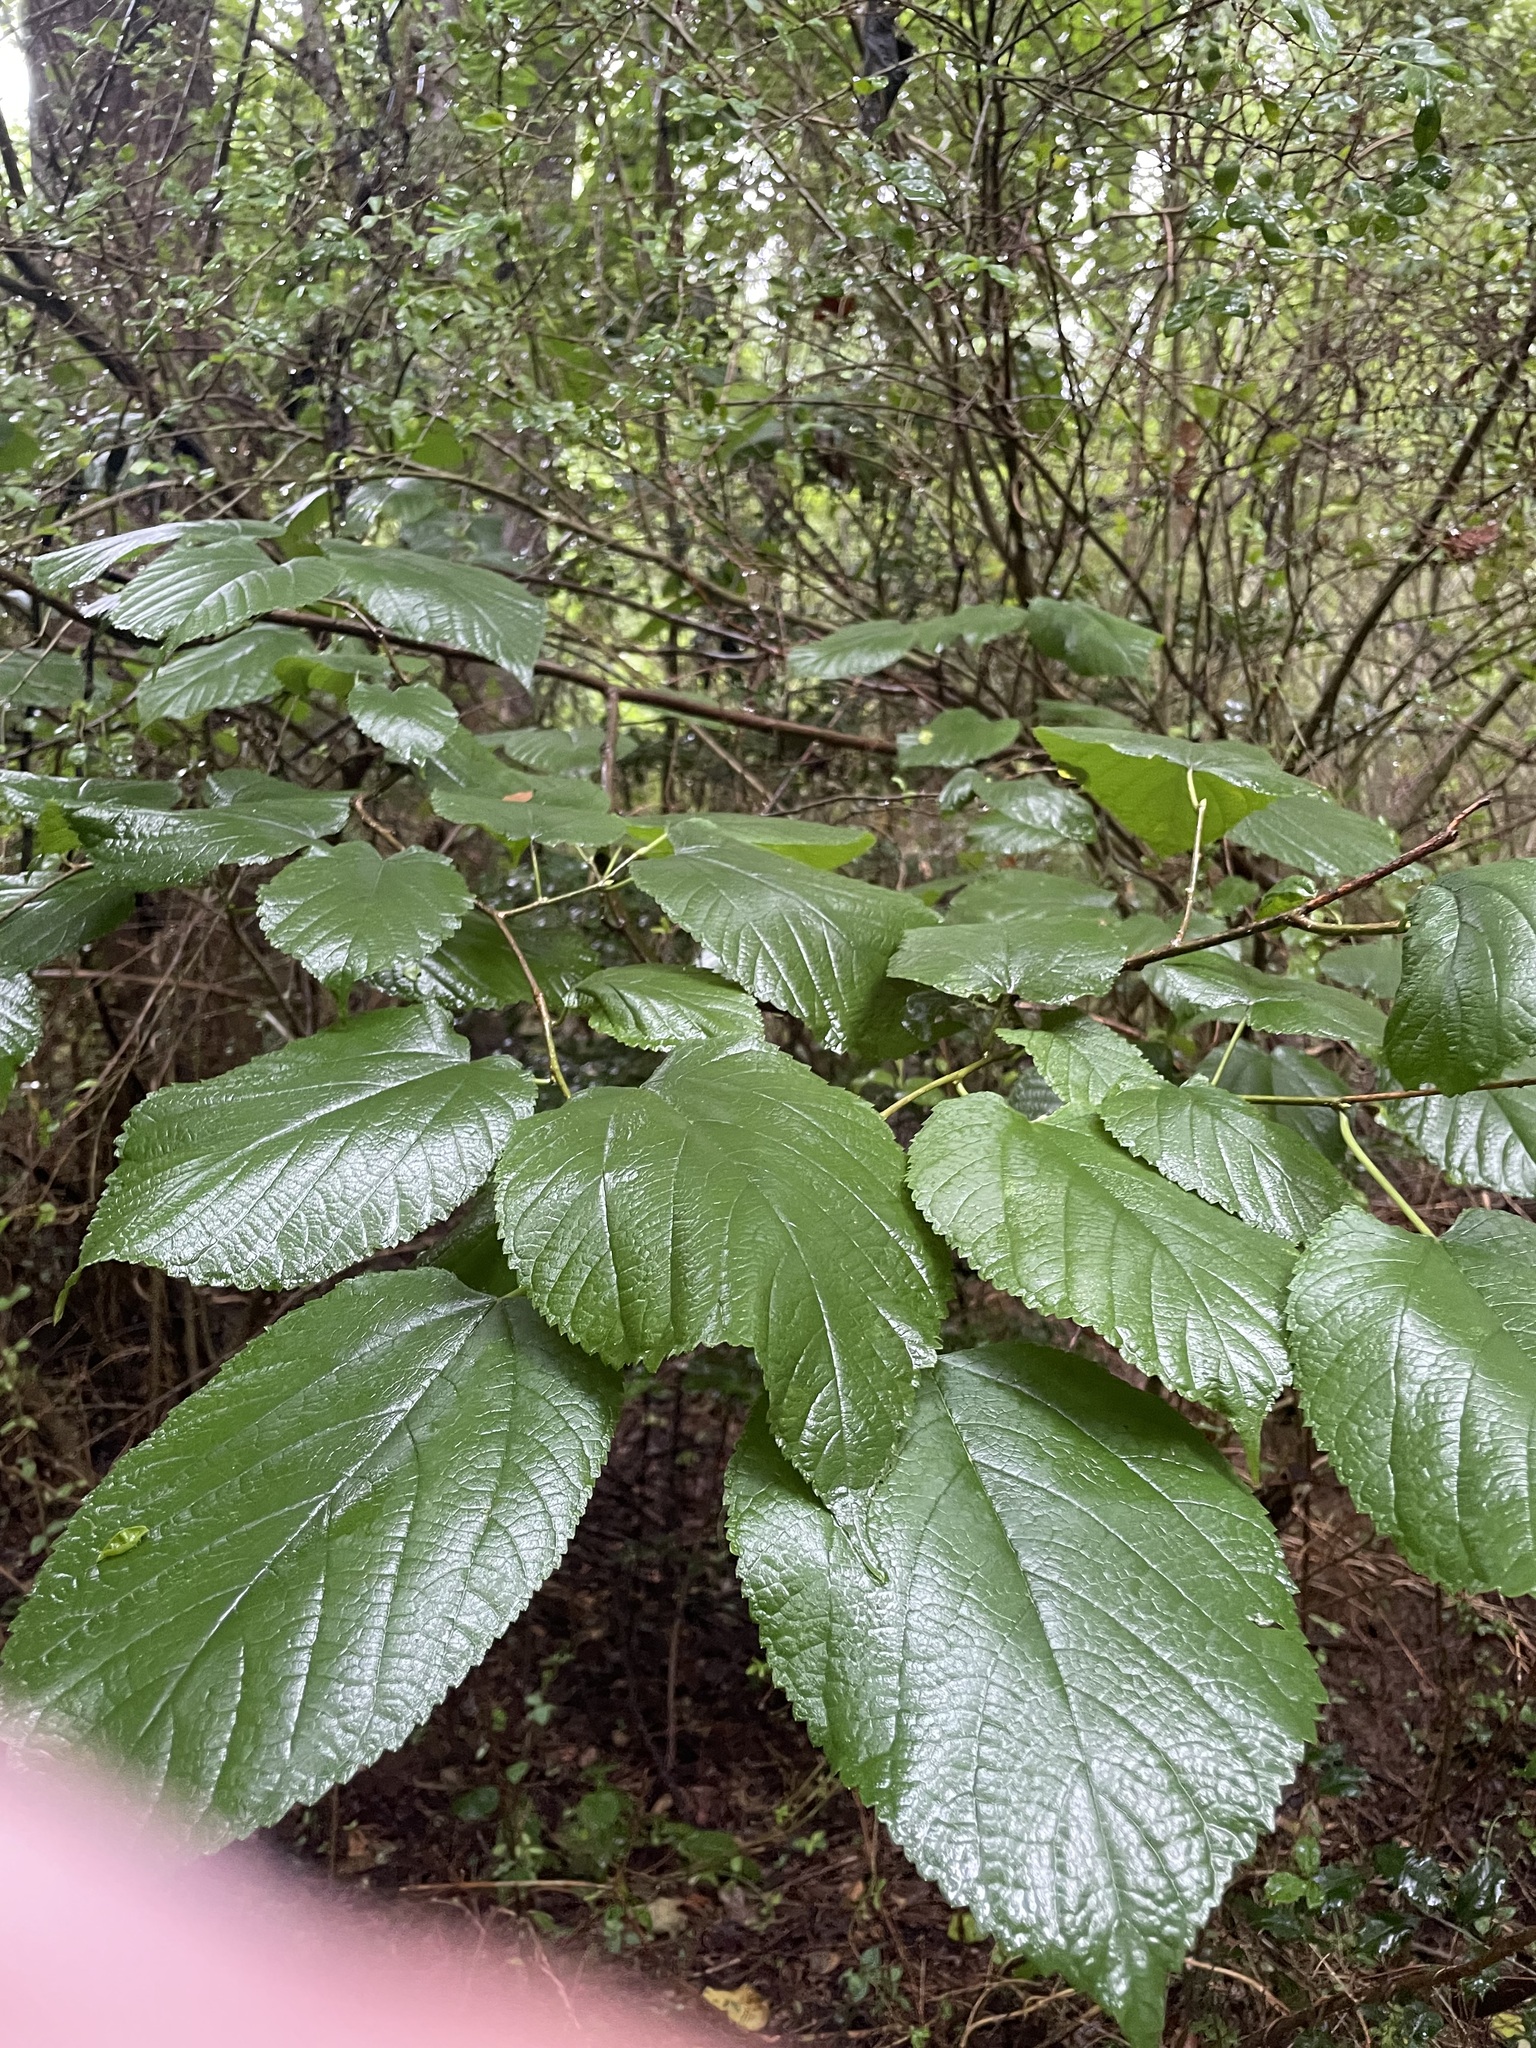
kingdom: Plantae
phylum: Tracheophyta
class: Magnoliopsida
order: Rosales
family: Moraceae
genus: Morus
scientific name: Morus rubra
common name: Red mulberry
